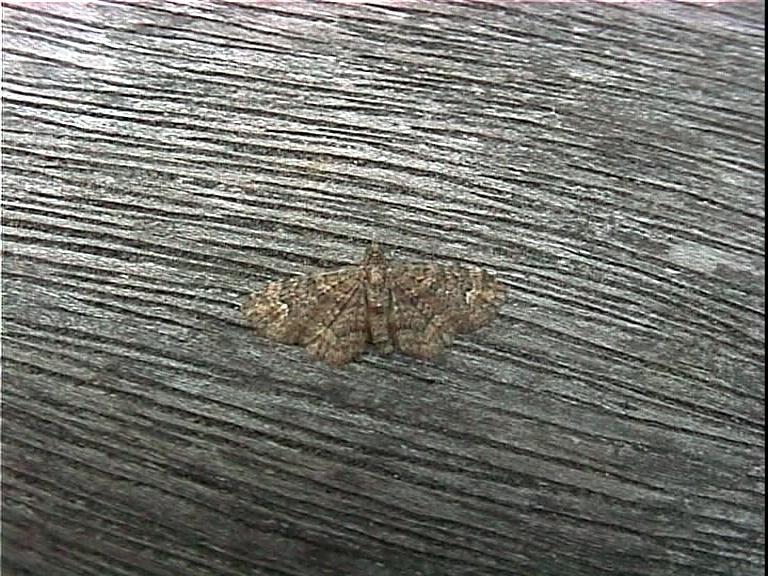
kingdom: Animalia
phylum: Arthropoda
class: Insecta
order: Lepidoptera
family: Geometridae
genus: Pasiphilodes
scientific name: Pasiphilodes testulata
